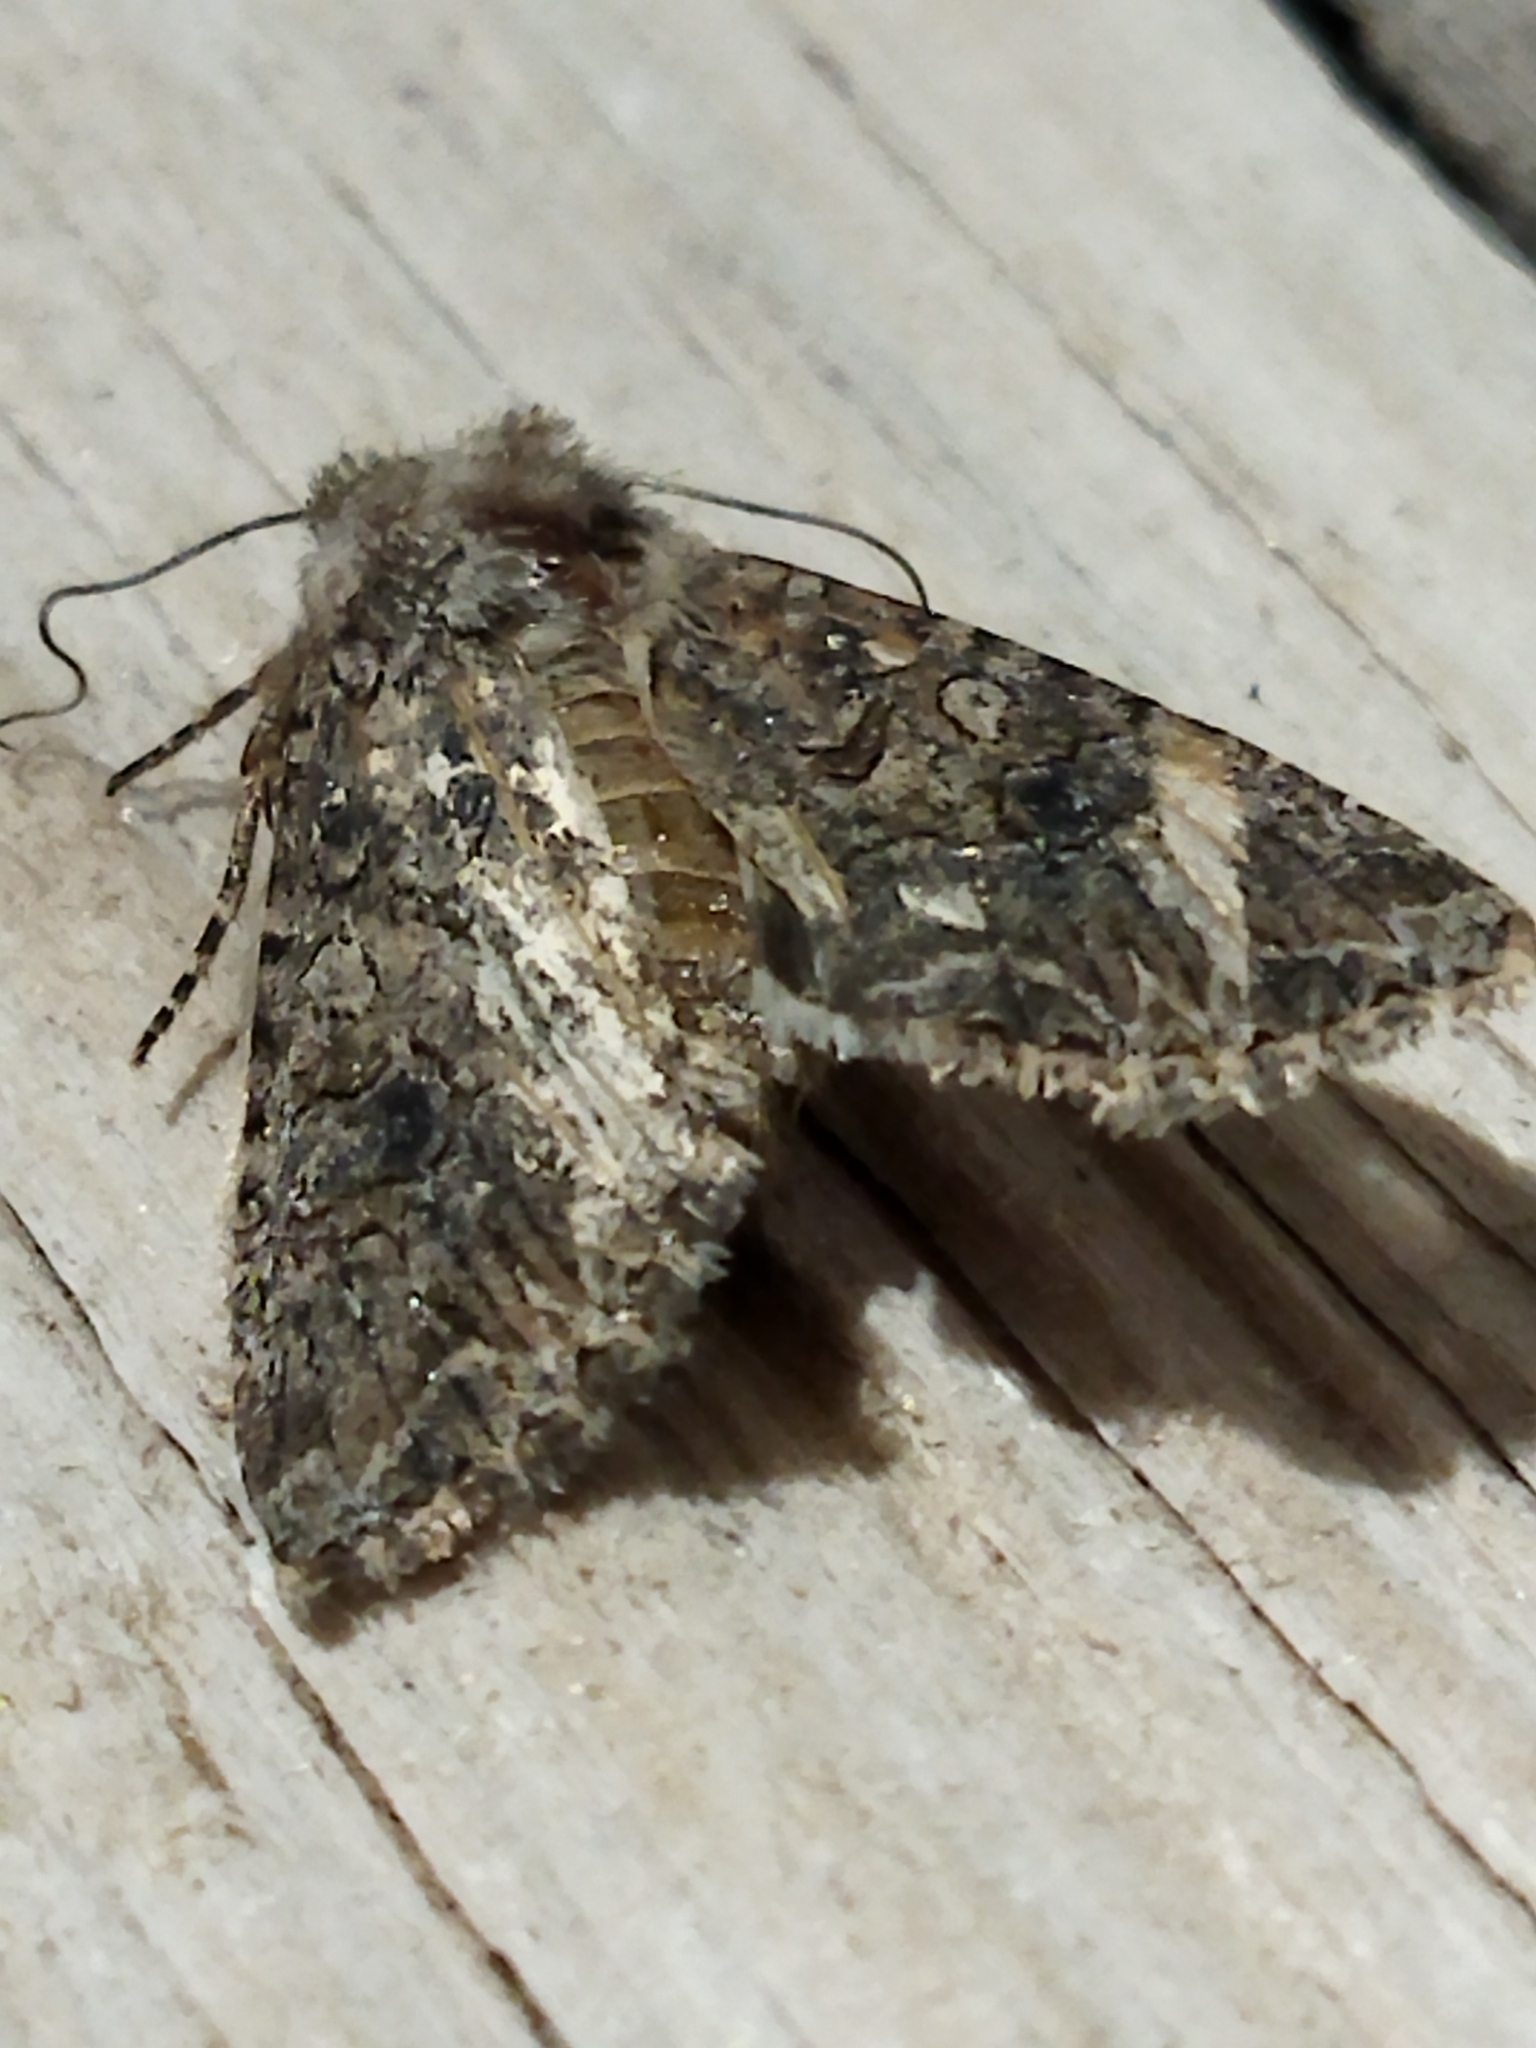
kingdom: Animalia
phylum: Arthropoda
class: Insecta
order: Lepidoptera
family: Noctuidae
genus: Anarta
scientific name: Anarta trifolii
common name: Clover cutworm moth
